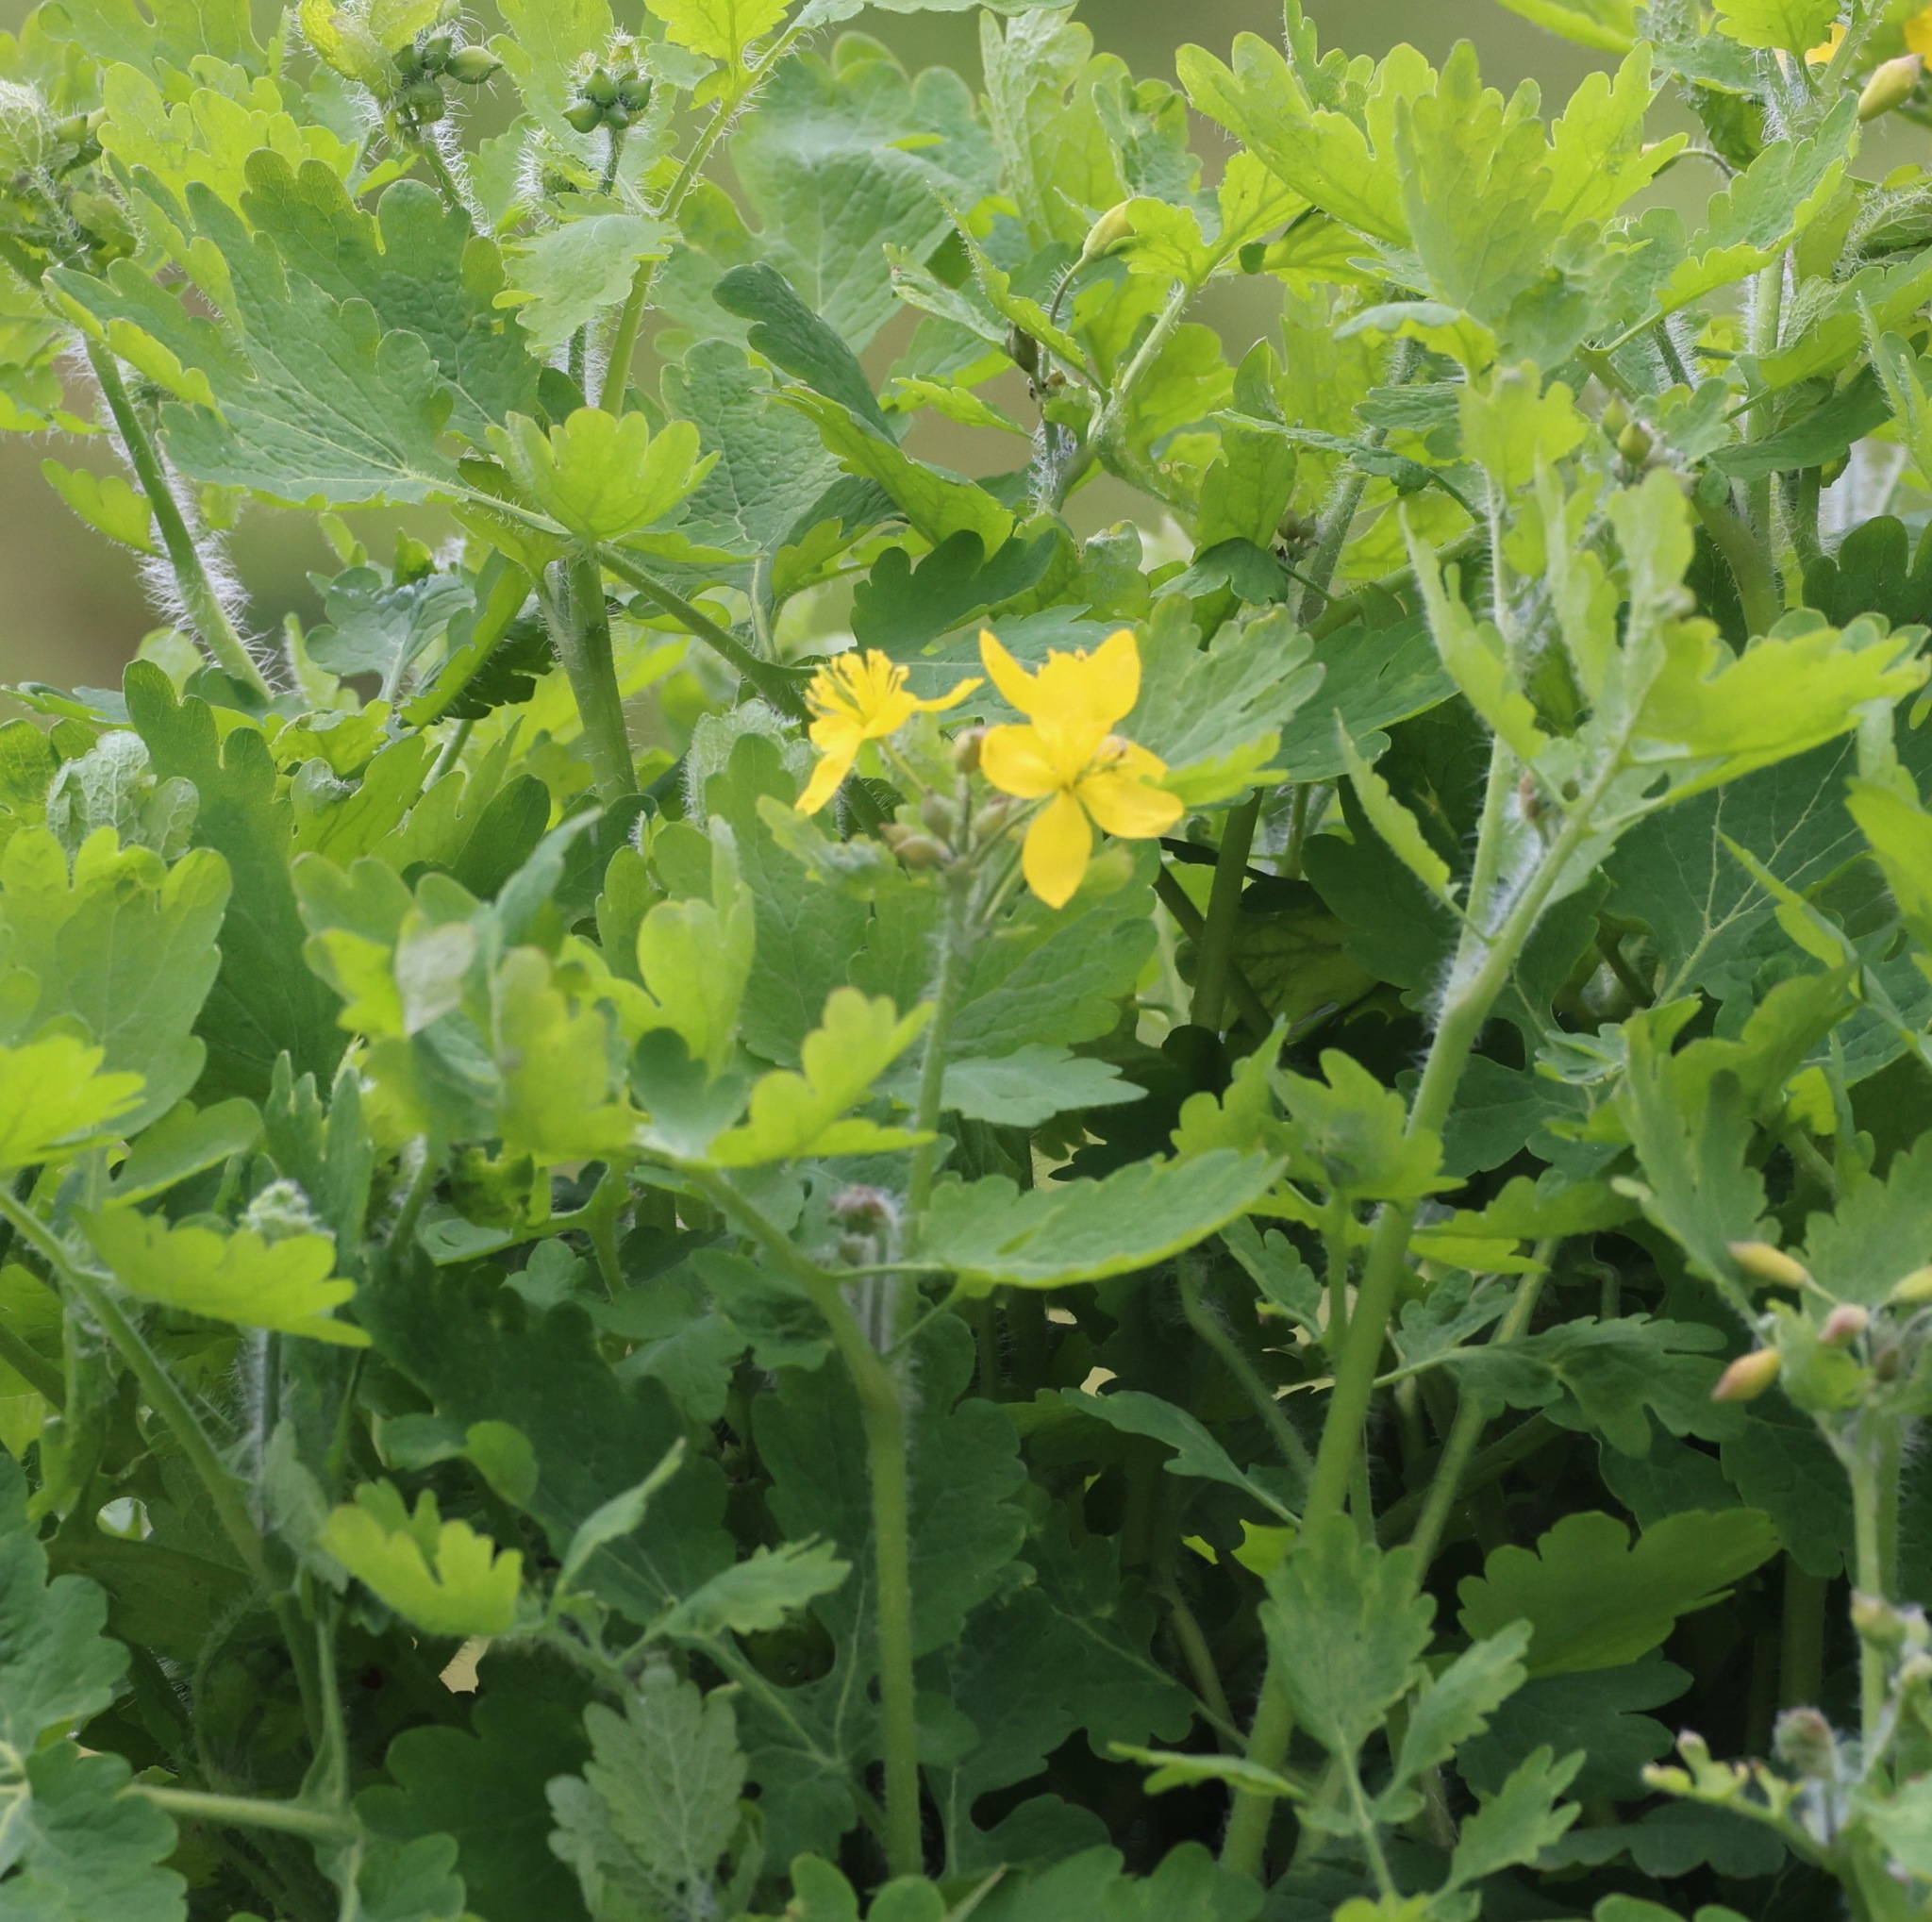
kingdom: Plantae
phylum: Tracheophyta
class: Magnoliopsida
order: Ranunculales
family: Papaveraceae
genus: Chelidonium
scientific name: Chelidonium majus
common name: Greater celandine
